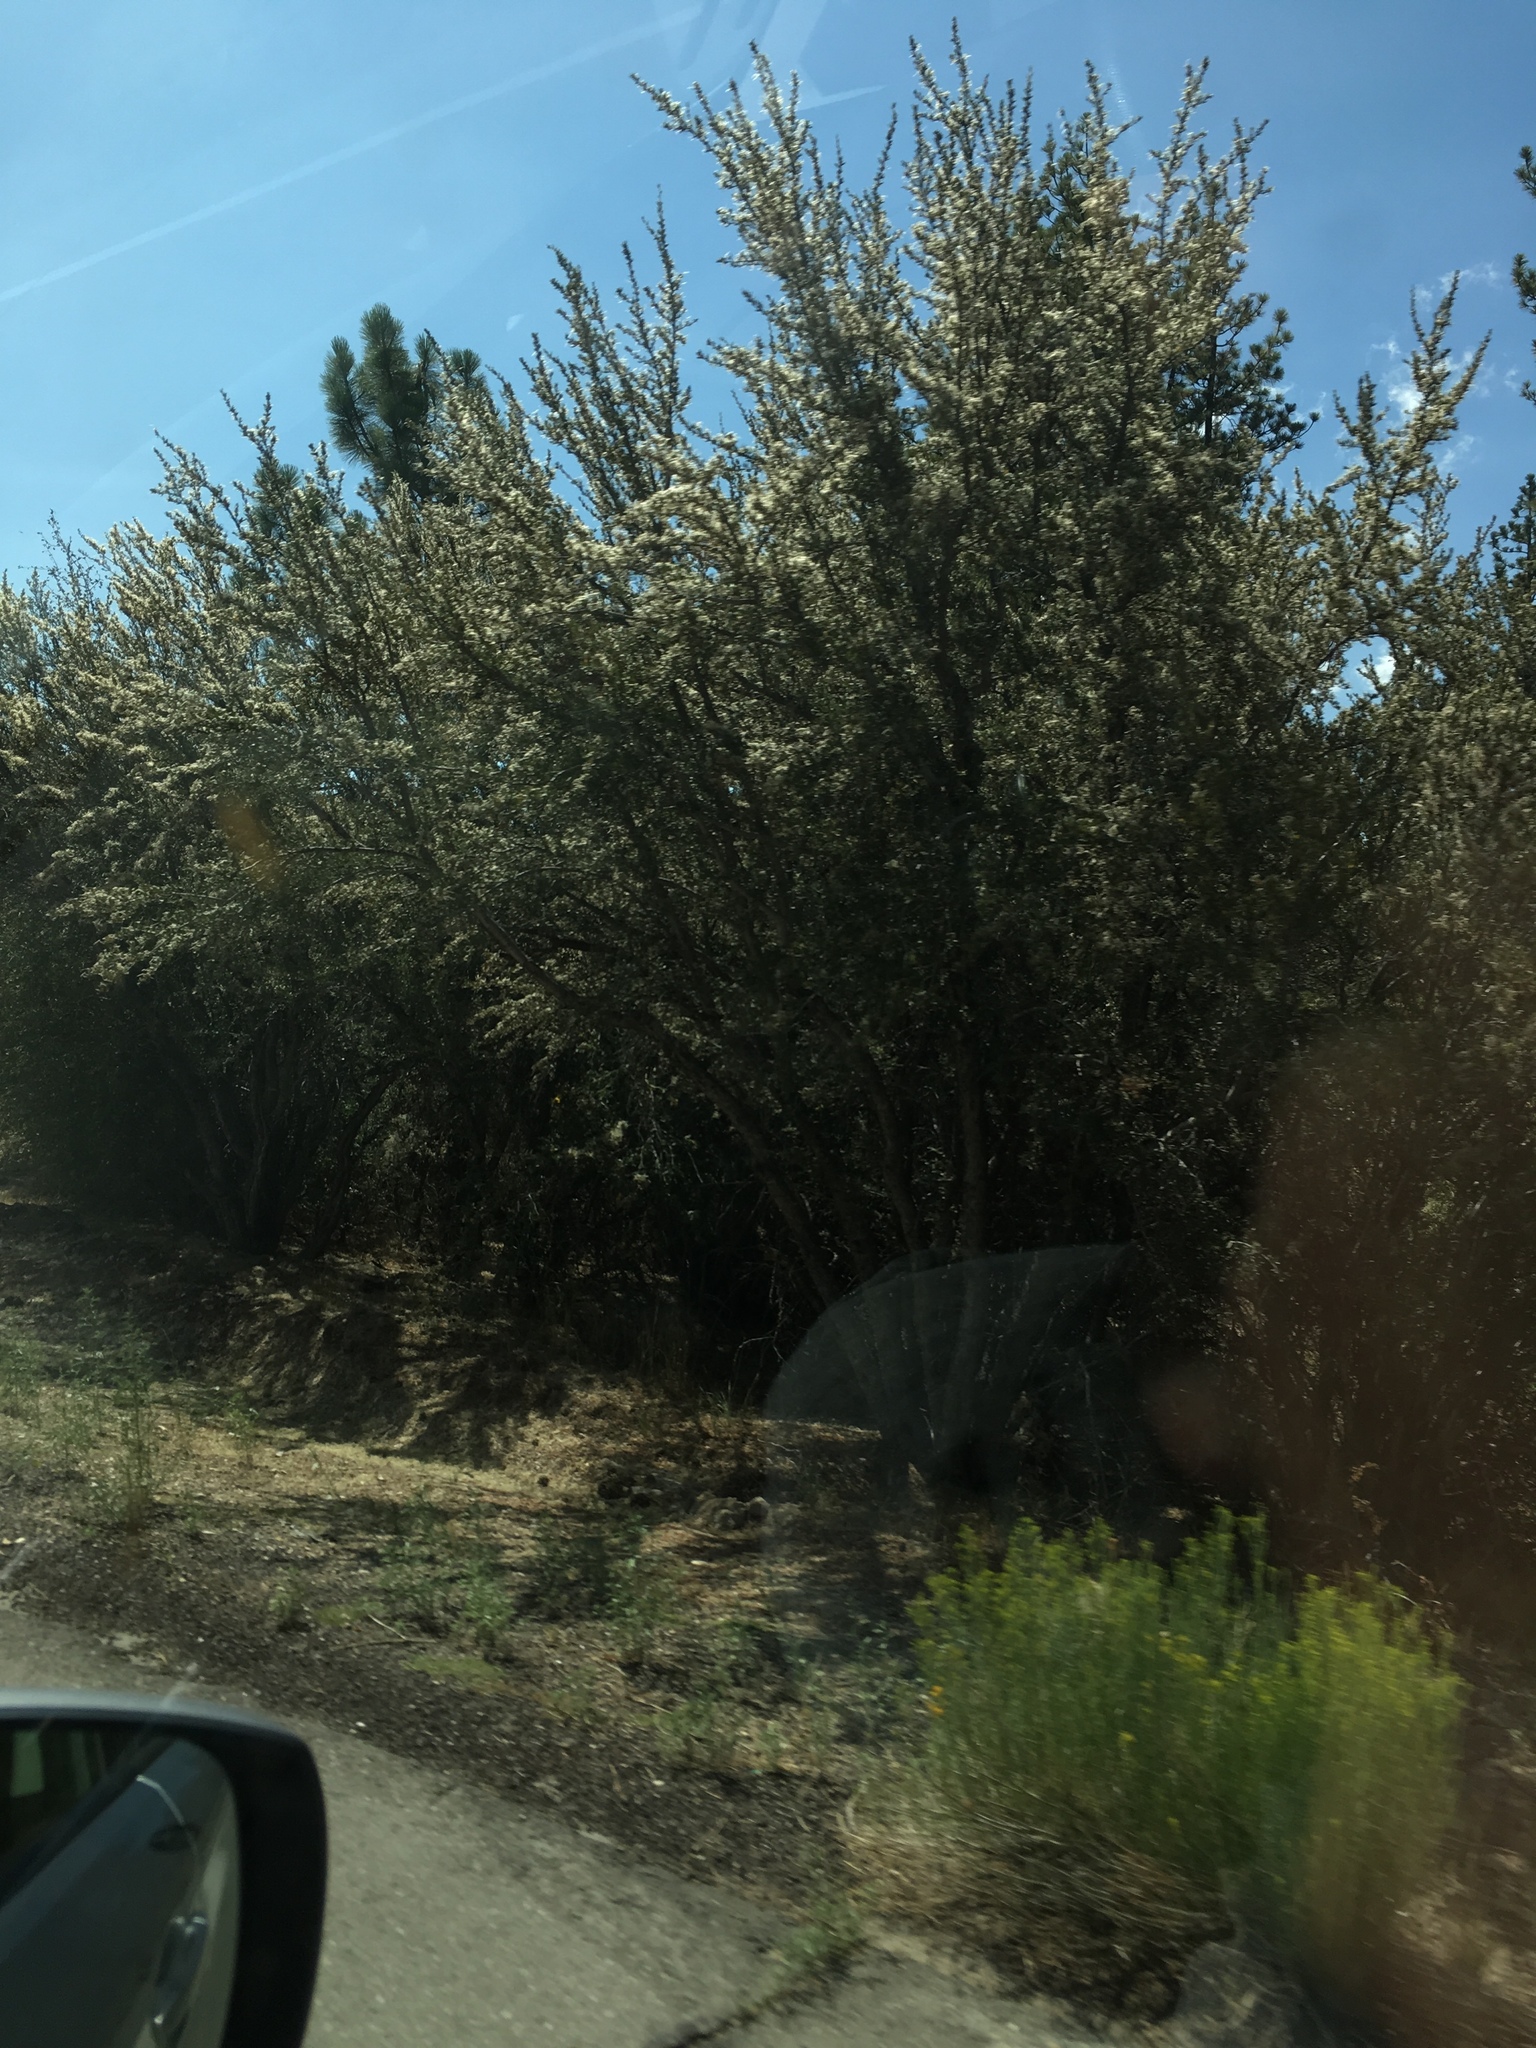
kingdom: Plantae
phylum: Tracheophyta
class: Magnoliopsida
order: Rosales
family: Rosaceae
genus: Cercocarpus
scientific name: Cercocarpus ledifolius
